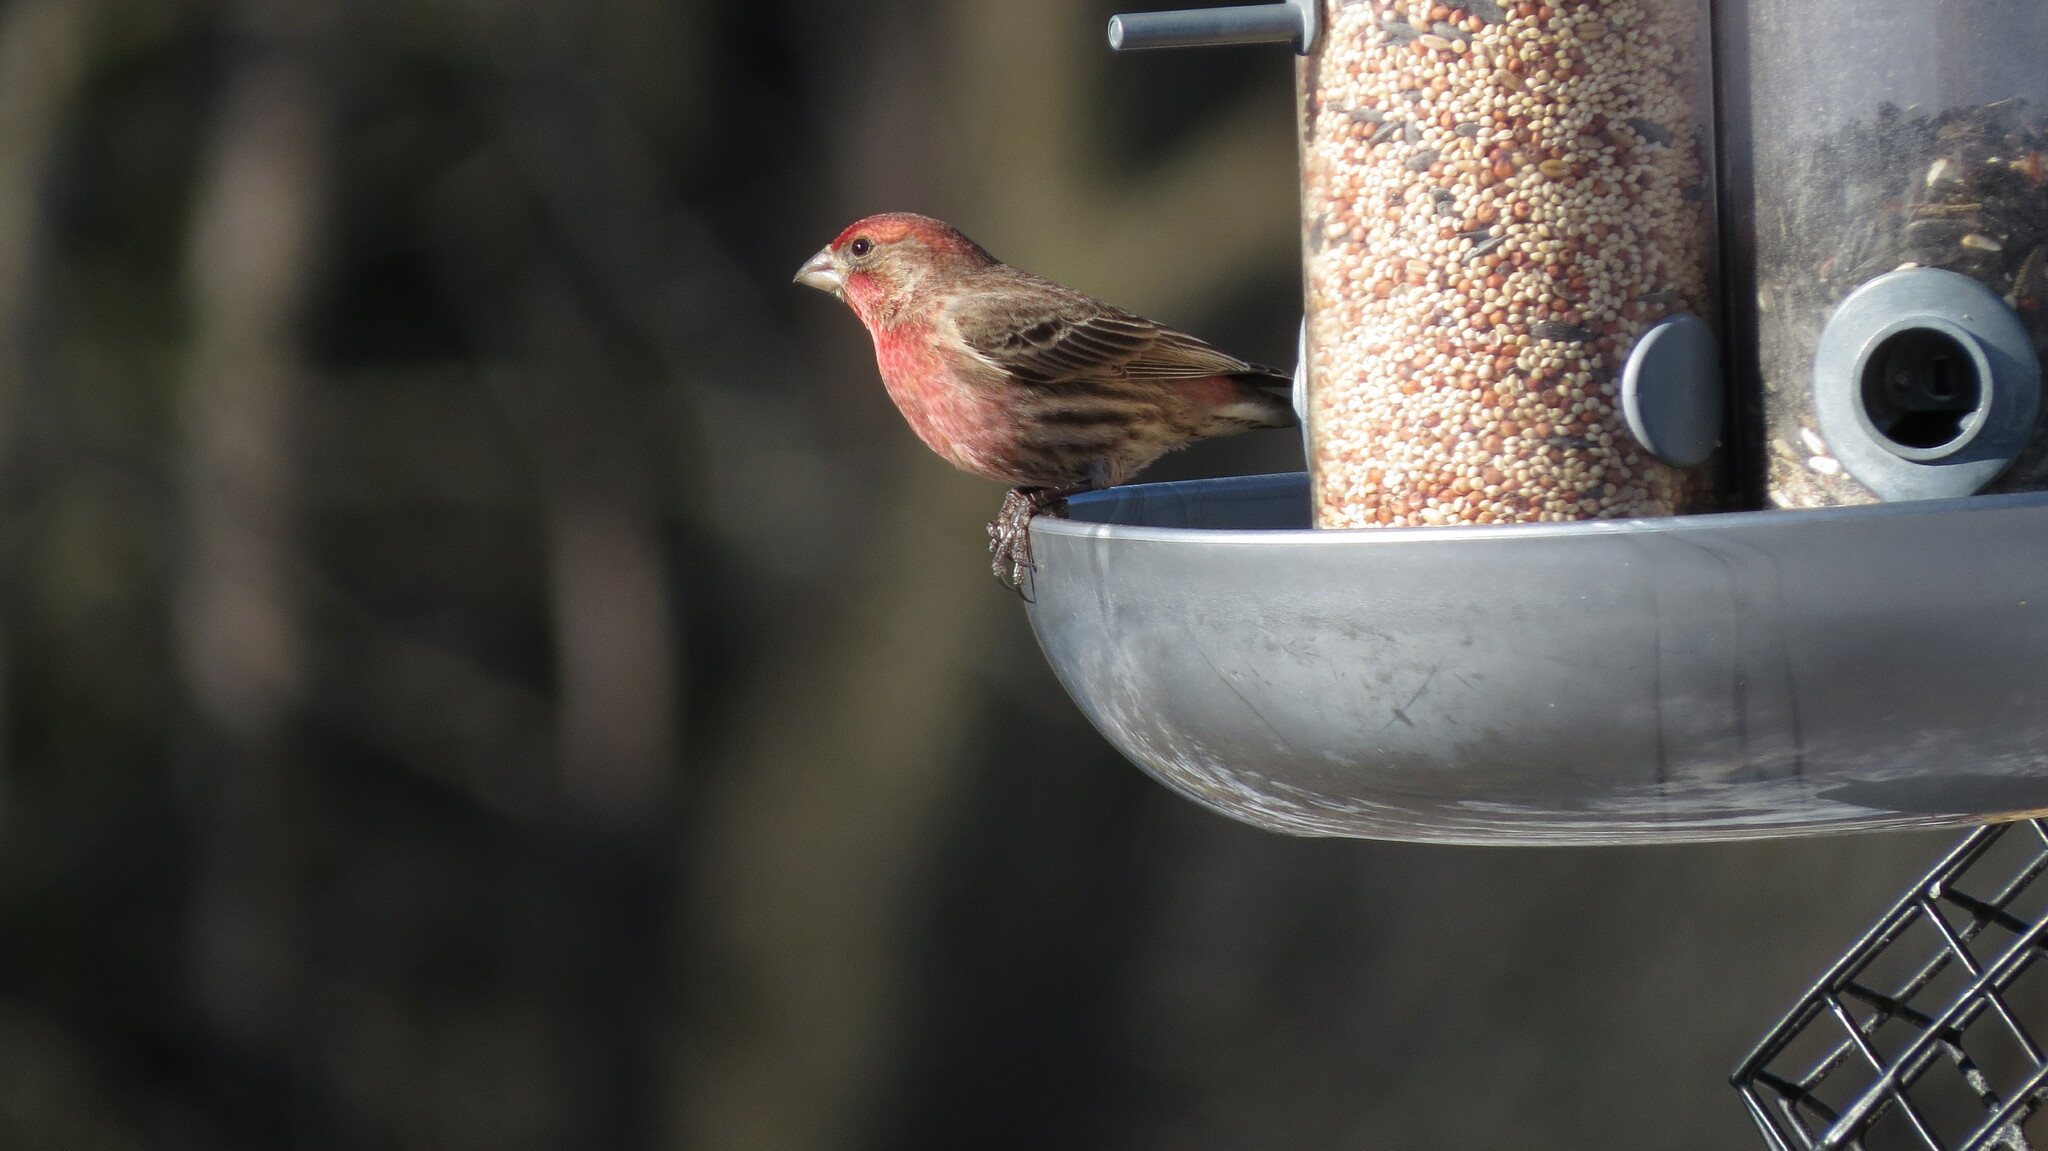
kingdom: Animalia
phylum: Chordata
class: Aves
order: Passeriformes
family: Fringillidae
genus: Haemorhous
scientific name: Haemorhous mexicanus
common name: House finch
